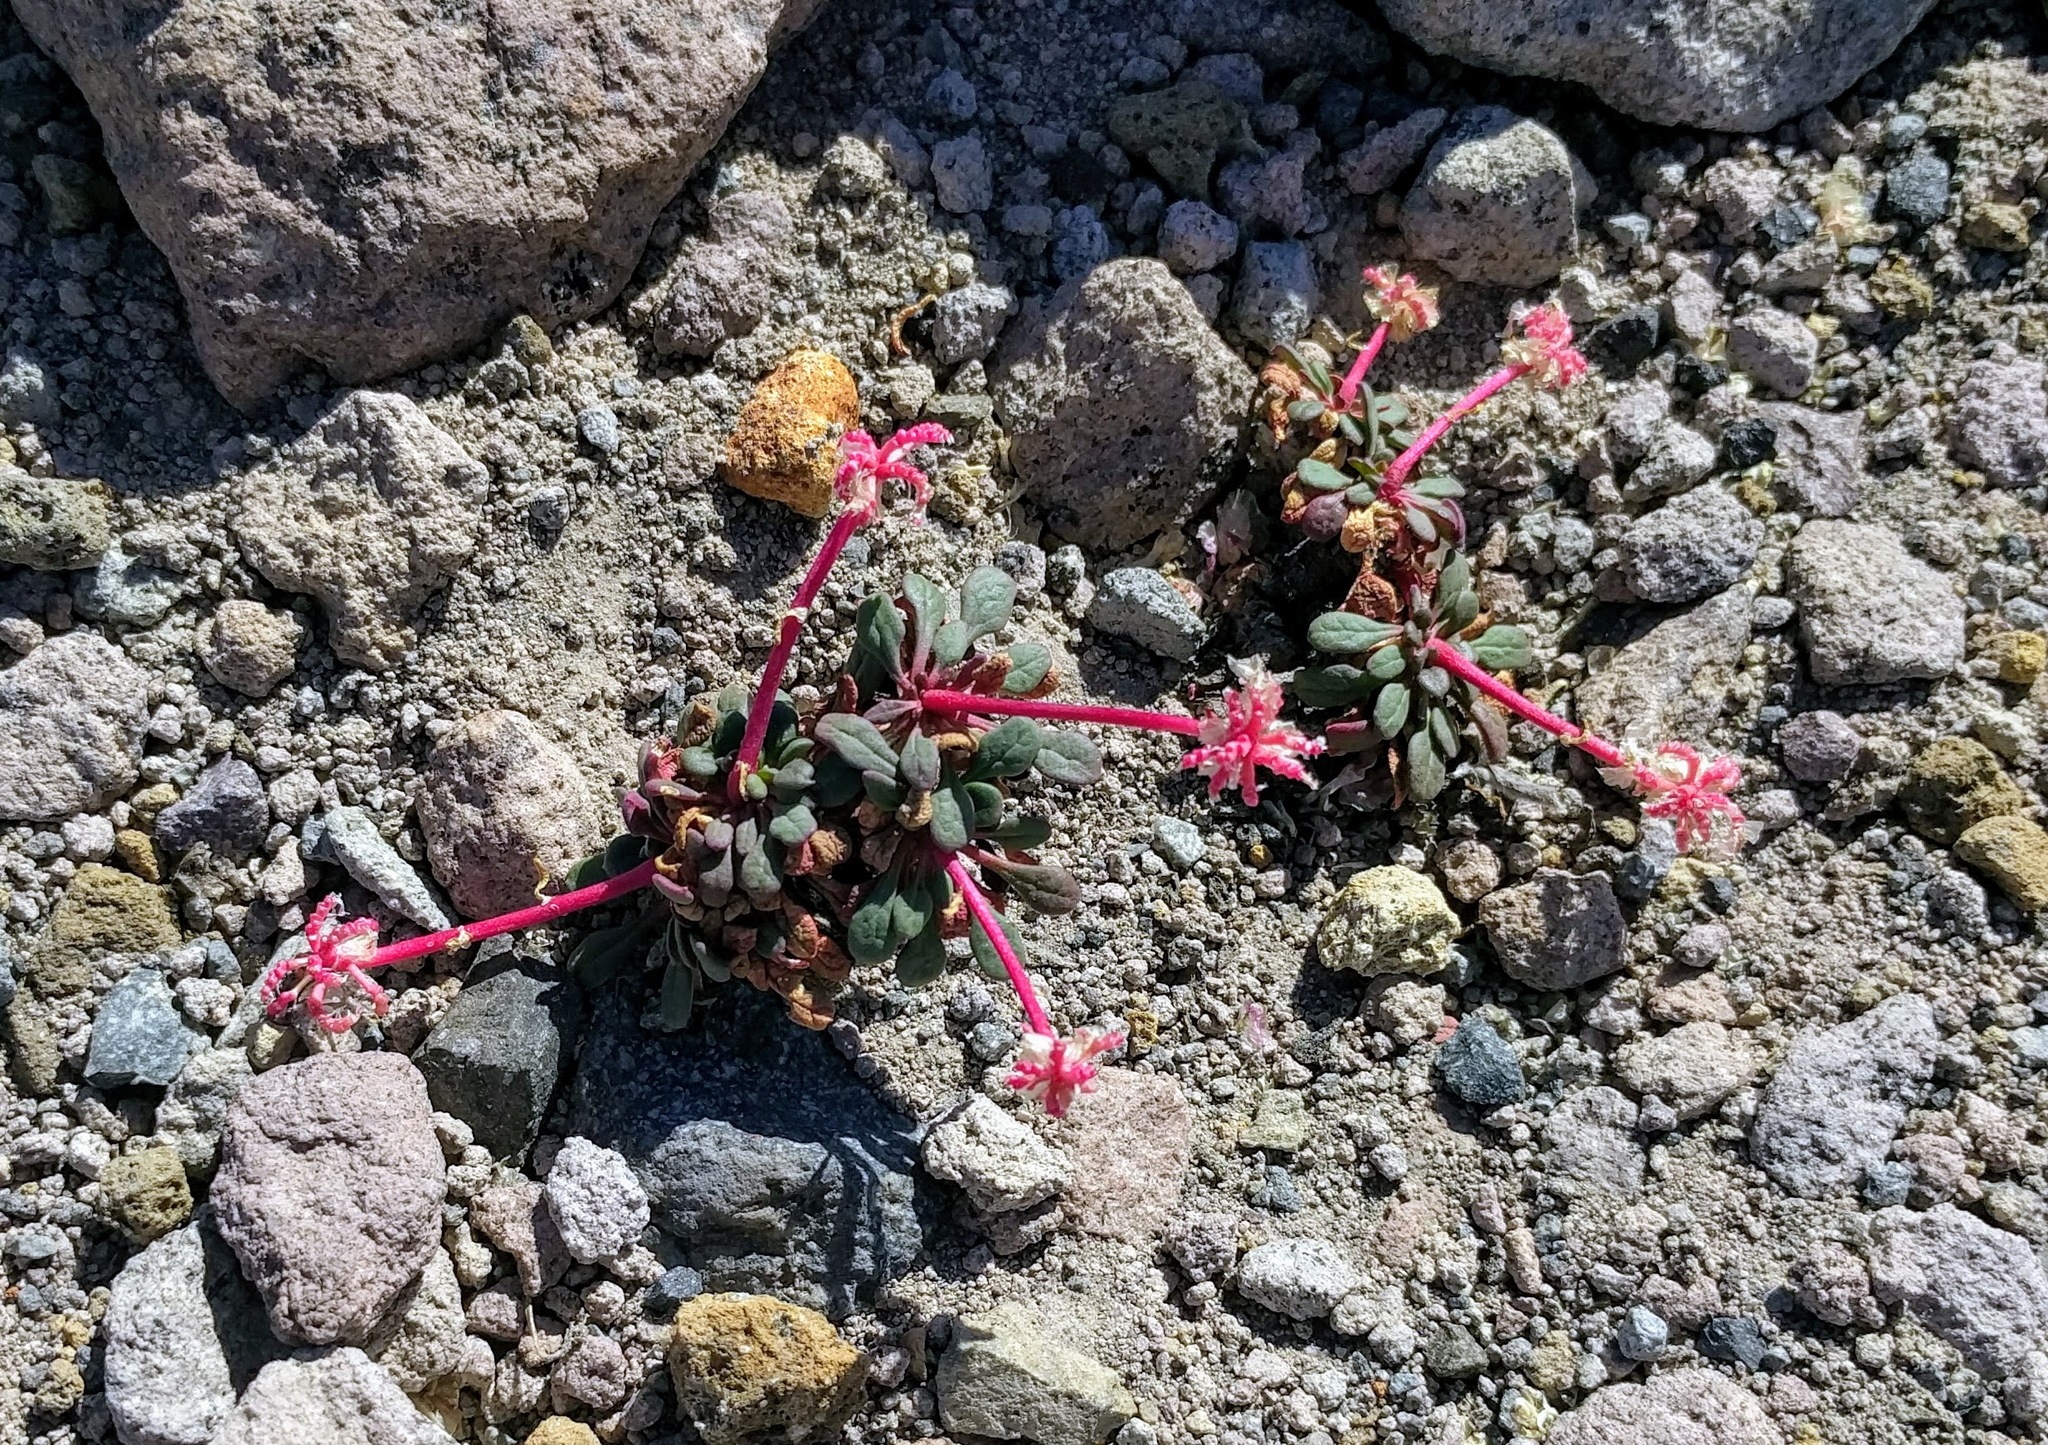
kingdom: Plantae
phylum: Tracheophyta
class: Magnoliopsida
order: Caryophyllales
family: Montiaceae
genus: Calyptridium
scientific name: Calyptridium umbellatum
